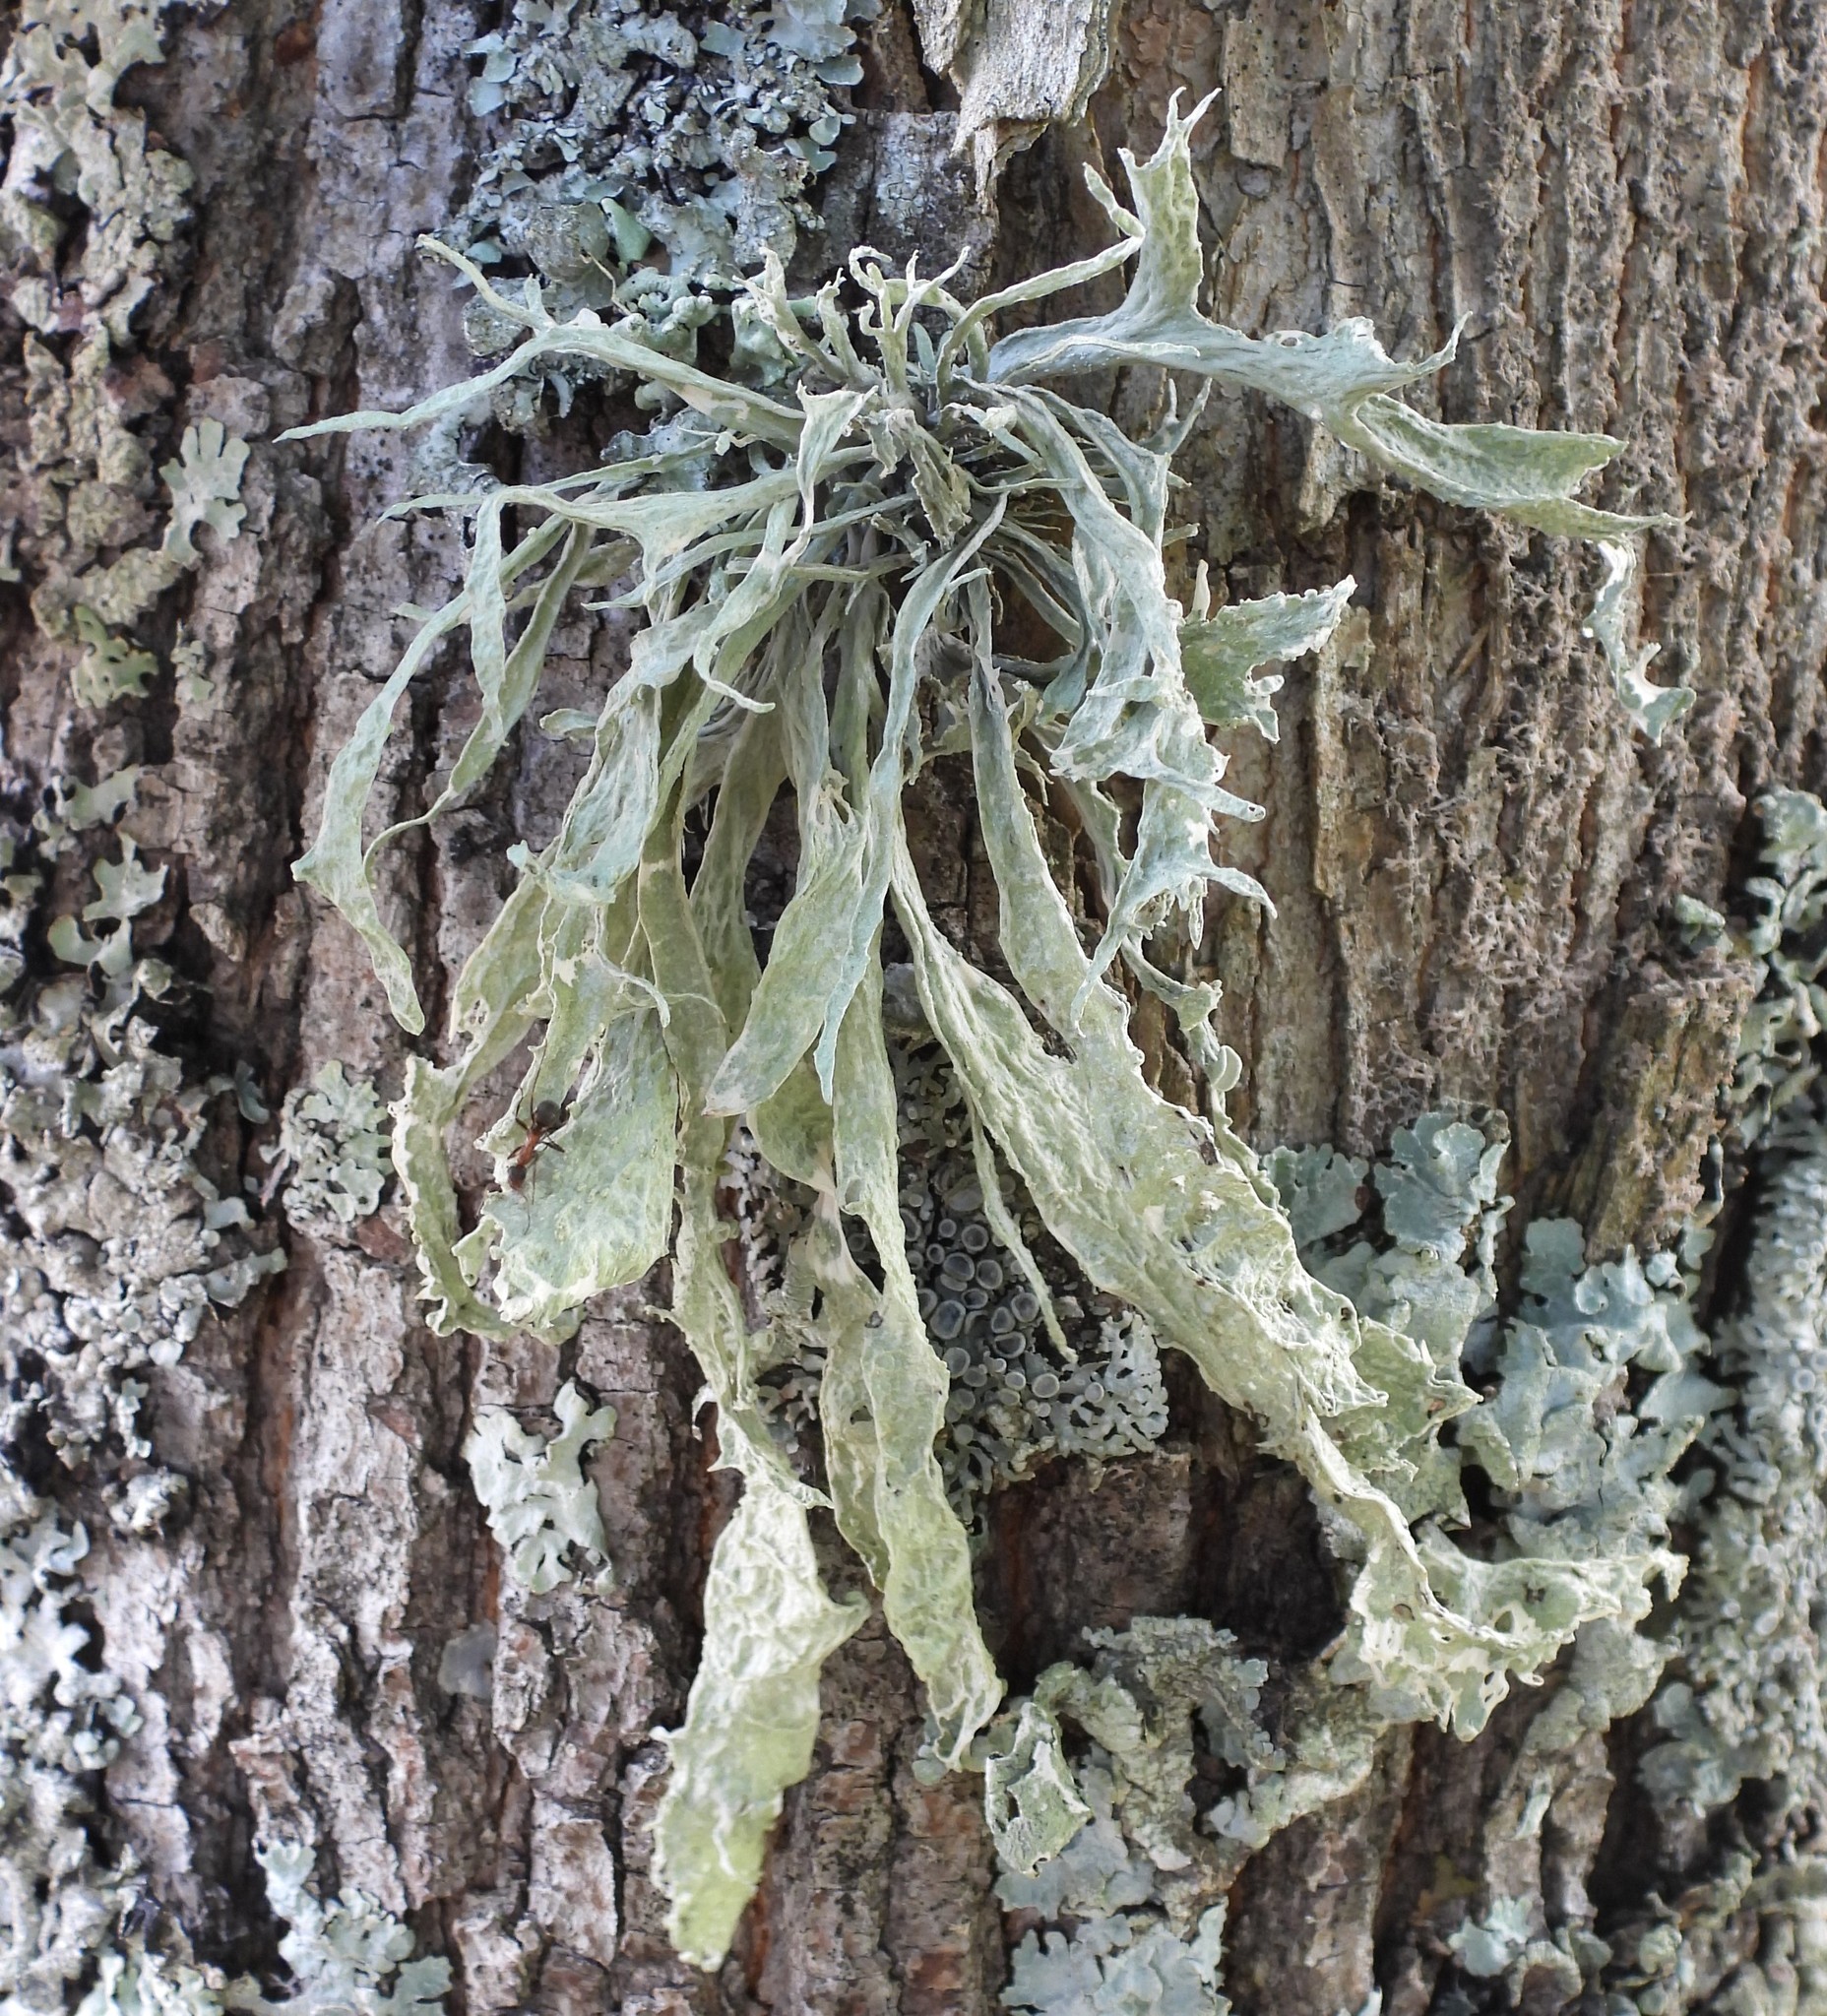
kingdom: Fungi
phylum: Ascomycota
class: Lecanoromycetes
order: Lecanorales
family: Ramalinaceae
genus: Ramalina
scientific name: Ramalina fraxinea
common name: Cartilage lichen
